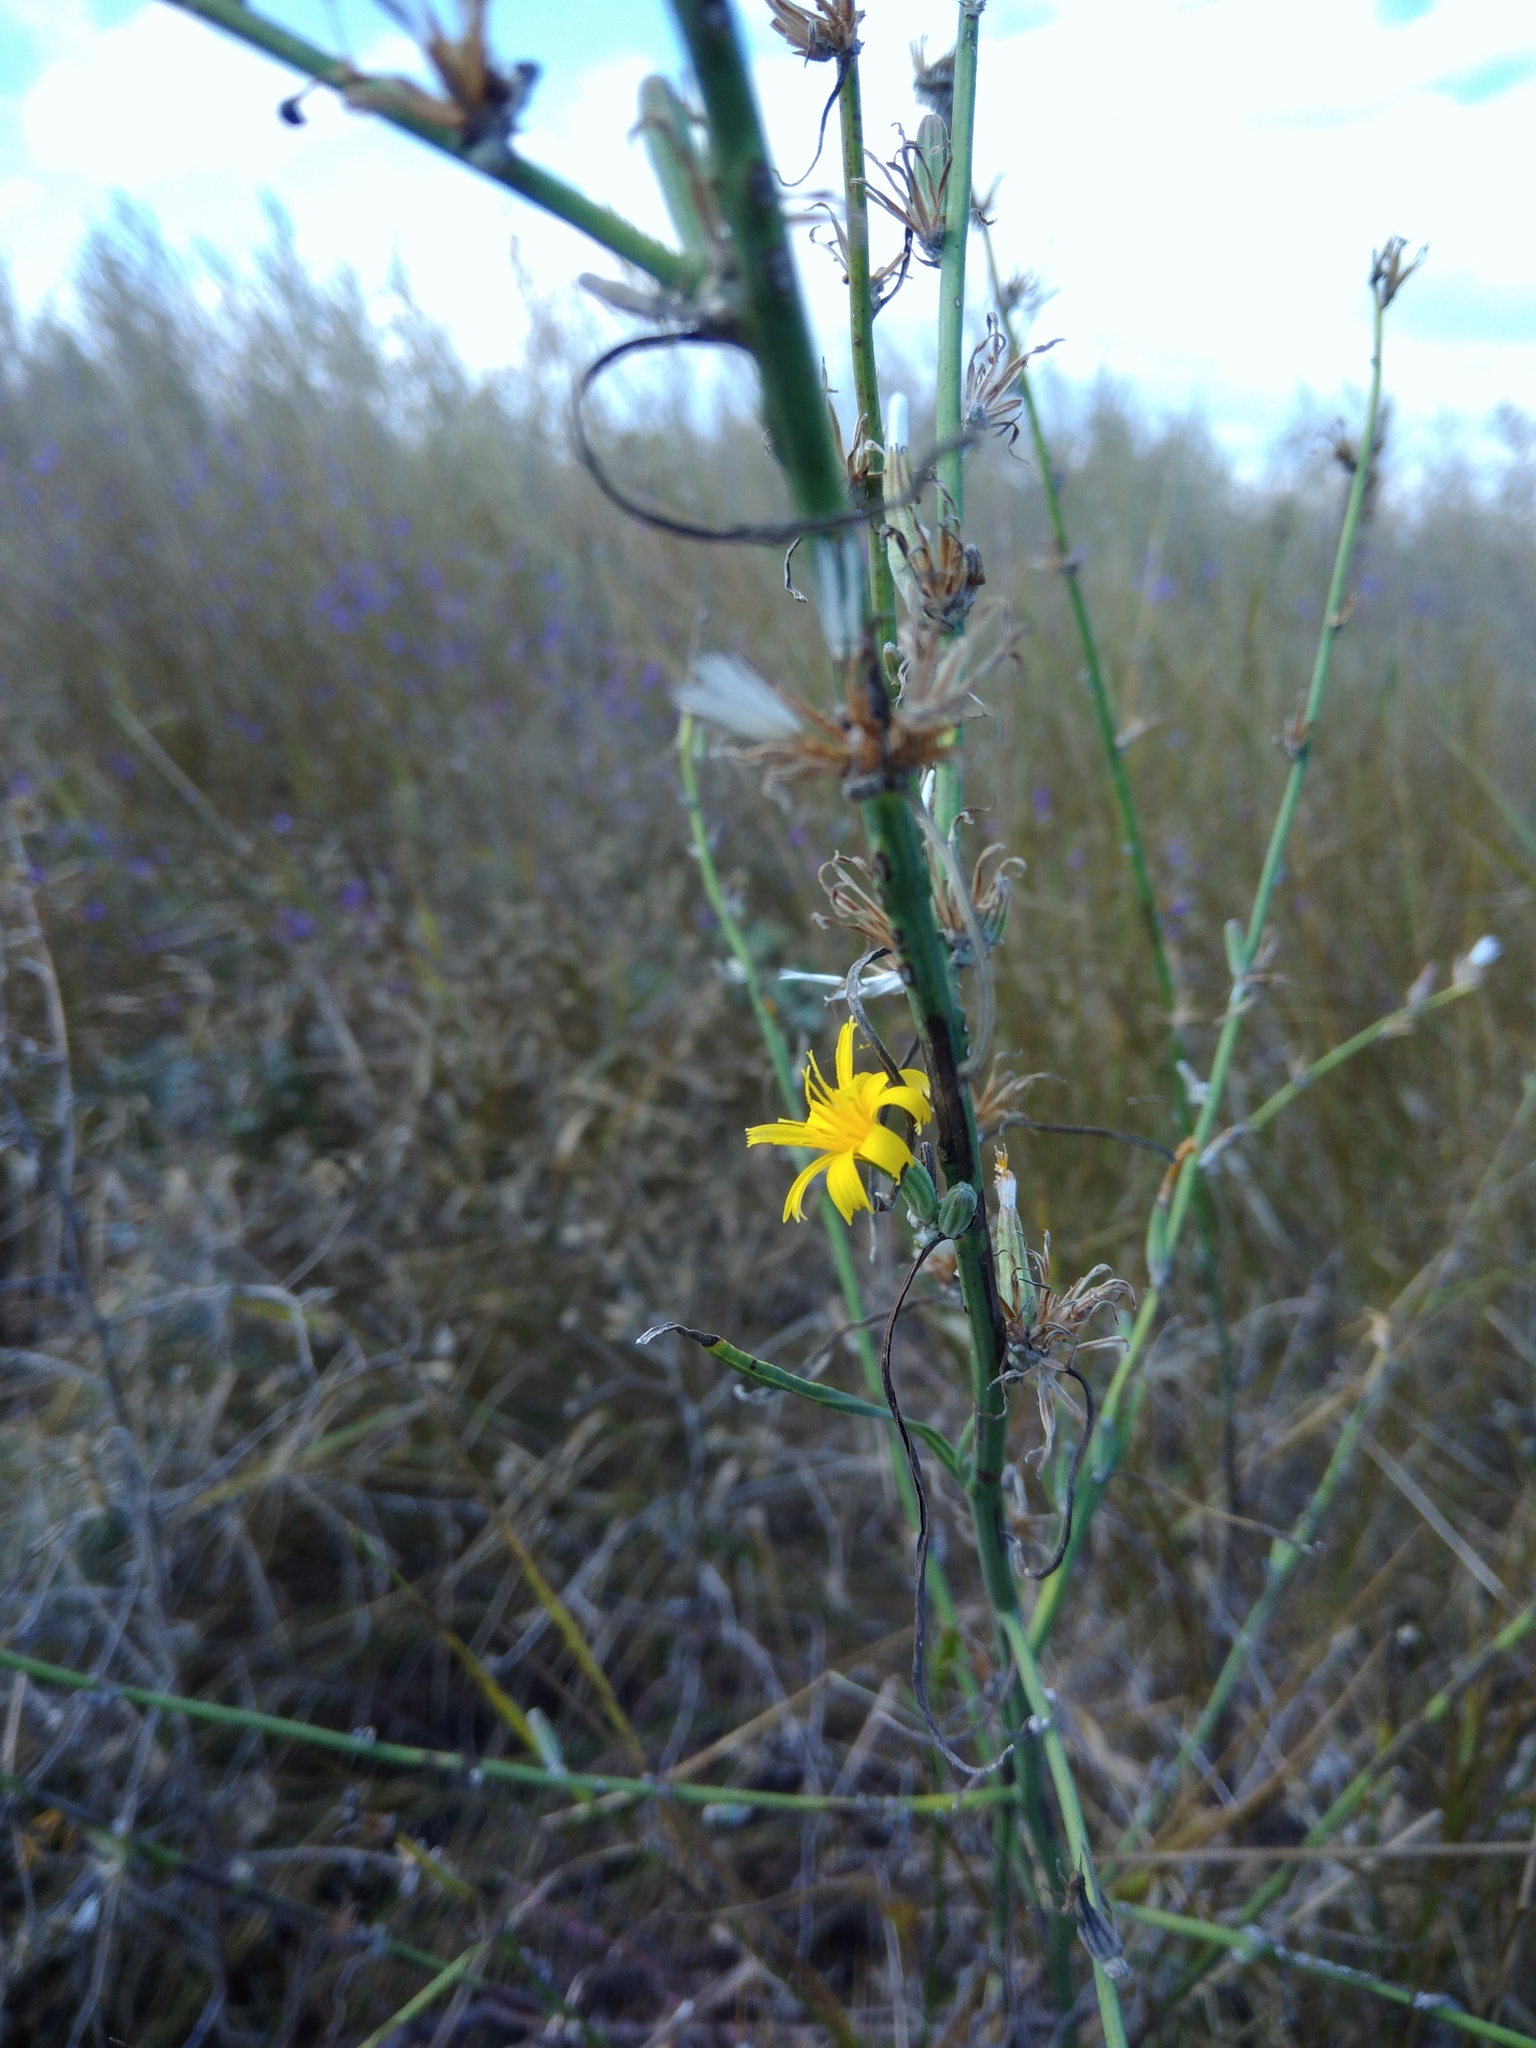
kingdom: Plantae
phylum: Tracheophyta
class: Magnoliopsida
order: Asterales
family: Asteraceae
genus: Chondrilla
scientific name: Chondrilla juncea
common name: Skeleton weed
